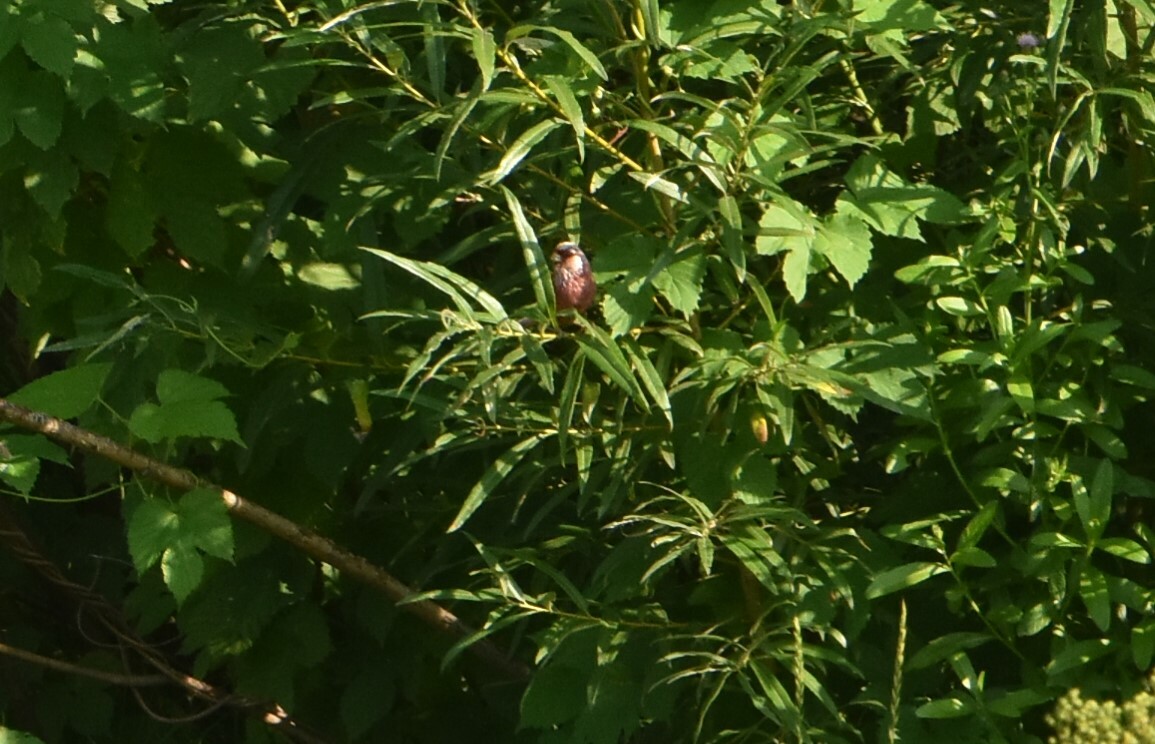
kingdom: Animalia
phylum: Chordata
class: Aves
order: Passeriformes
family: Fringillidae
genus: Carpodacus
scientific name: Carpodacus sibiricus
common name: Long-tailed rosefinch
